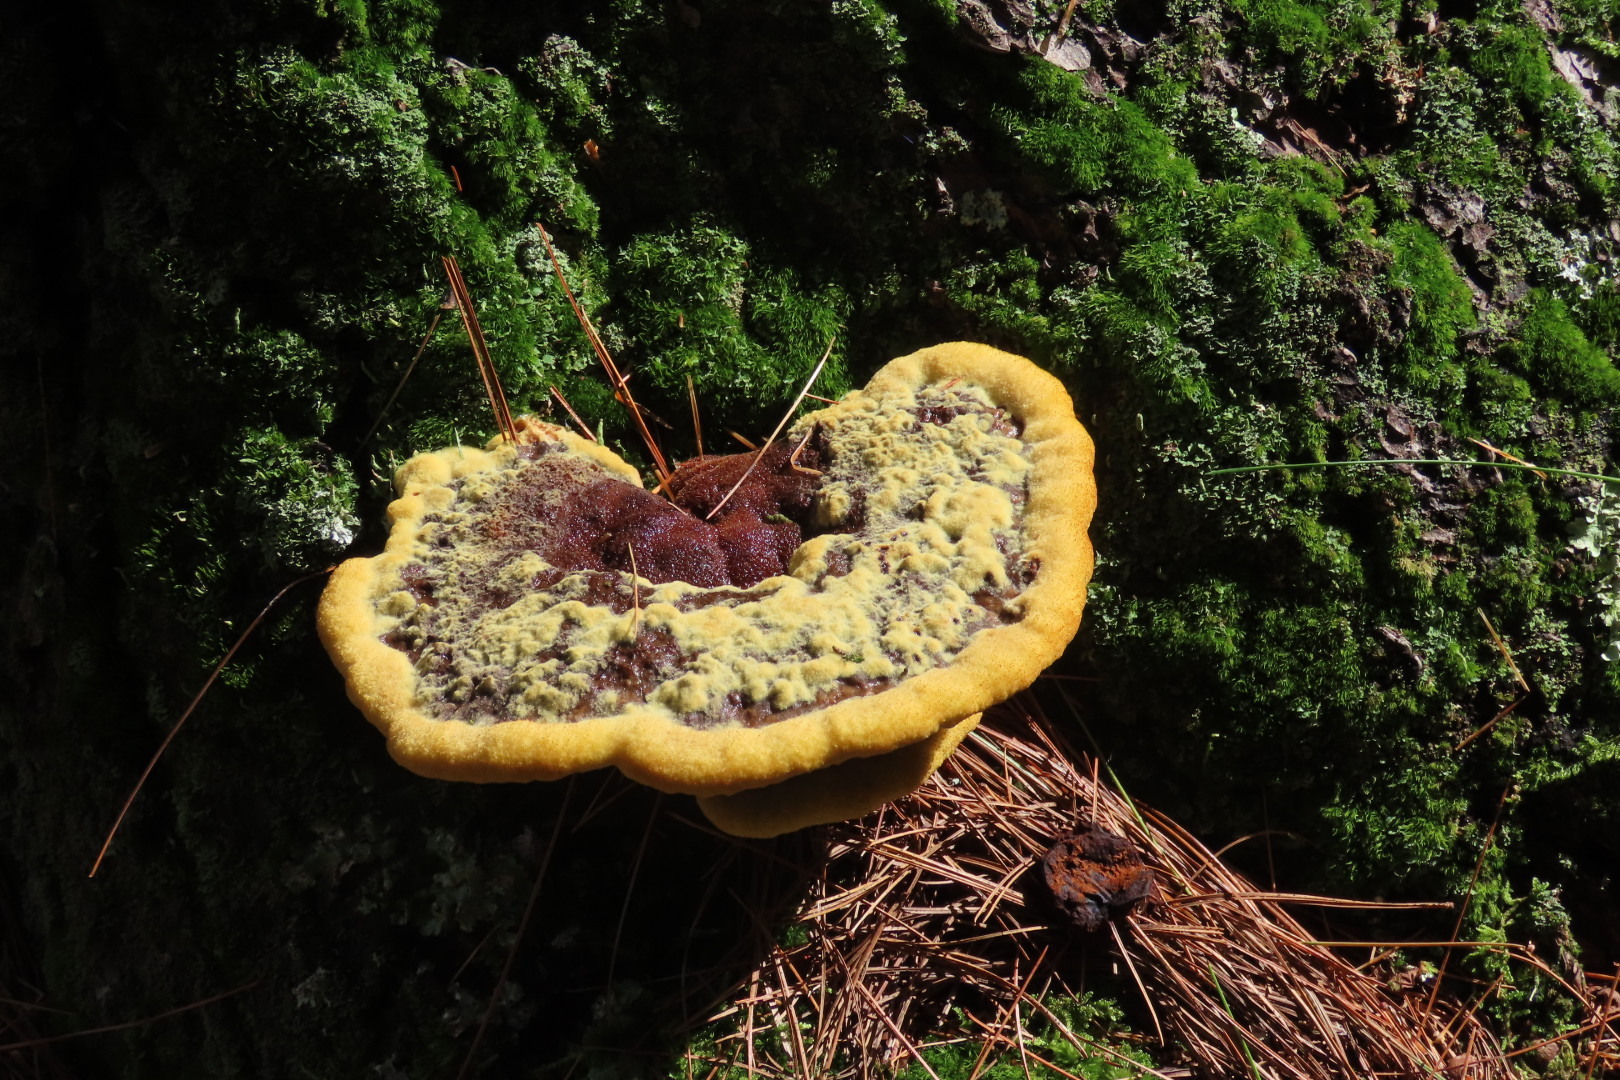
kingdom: Fungi
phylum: Basidiomycota
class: Agaricomycetes
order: Polyporales
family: Laetiporaceae
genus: Phaeolus
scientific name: Phaeolus schweinitzii
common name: Dyer's mazegill
